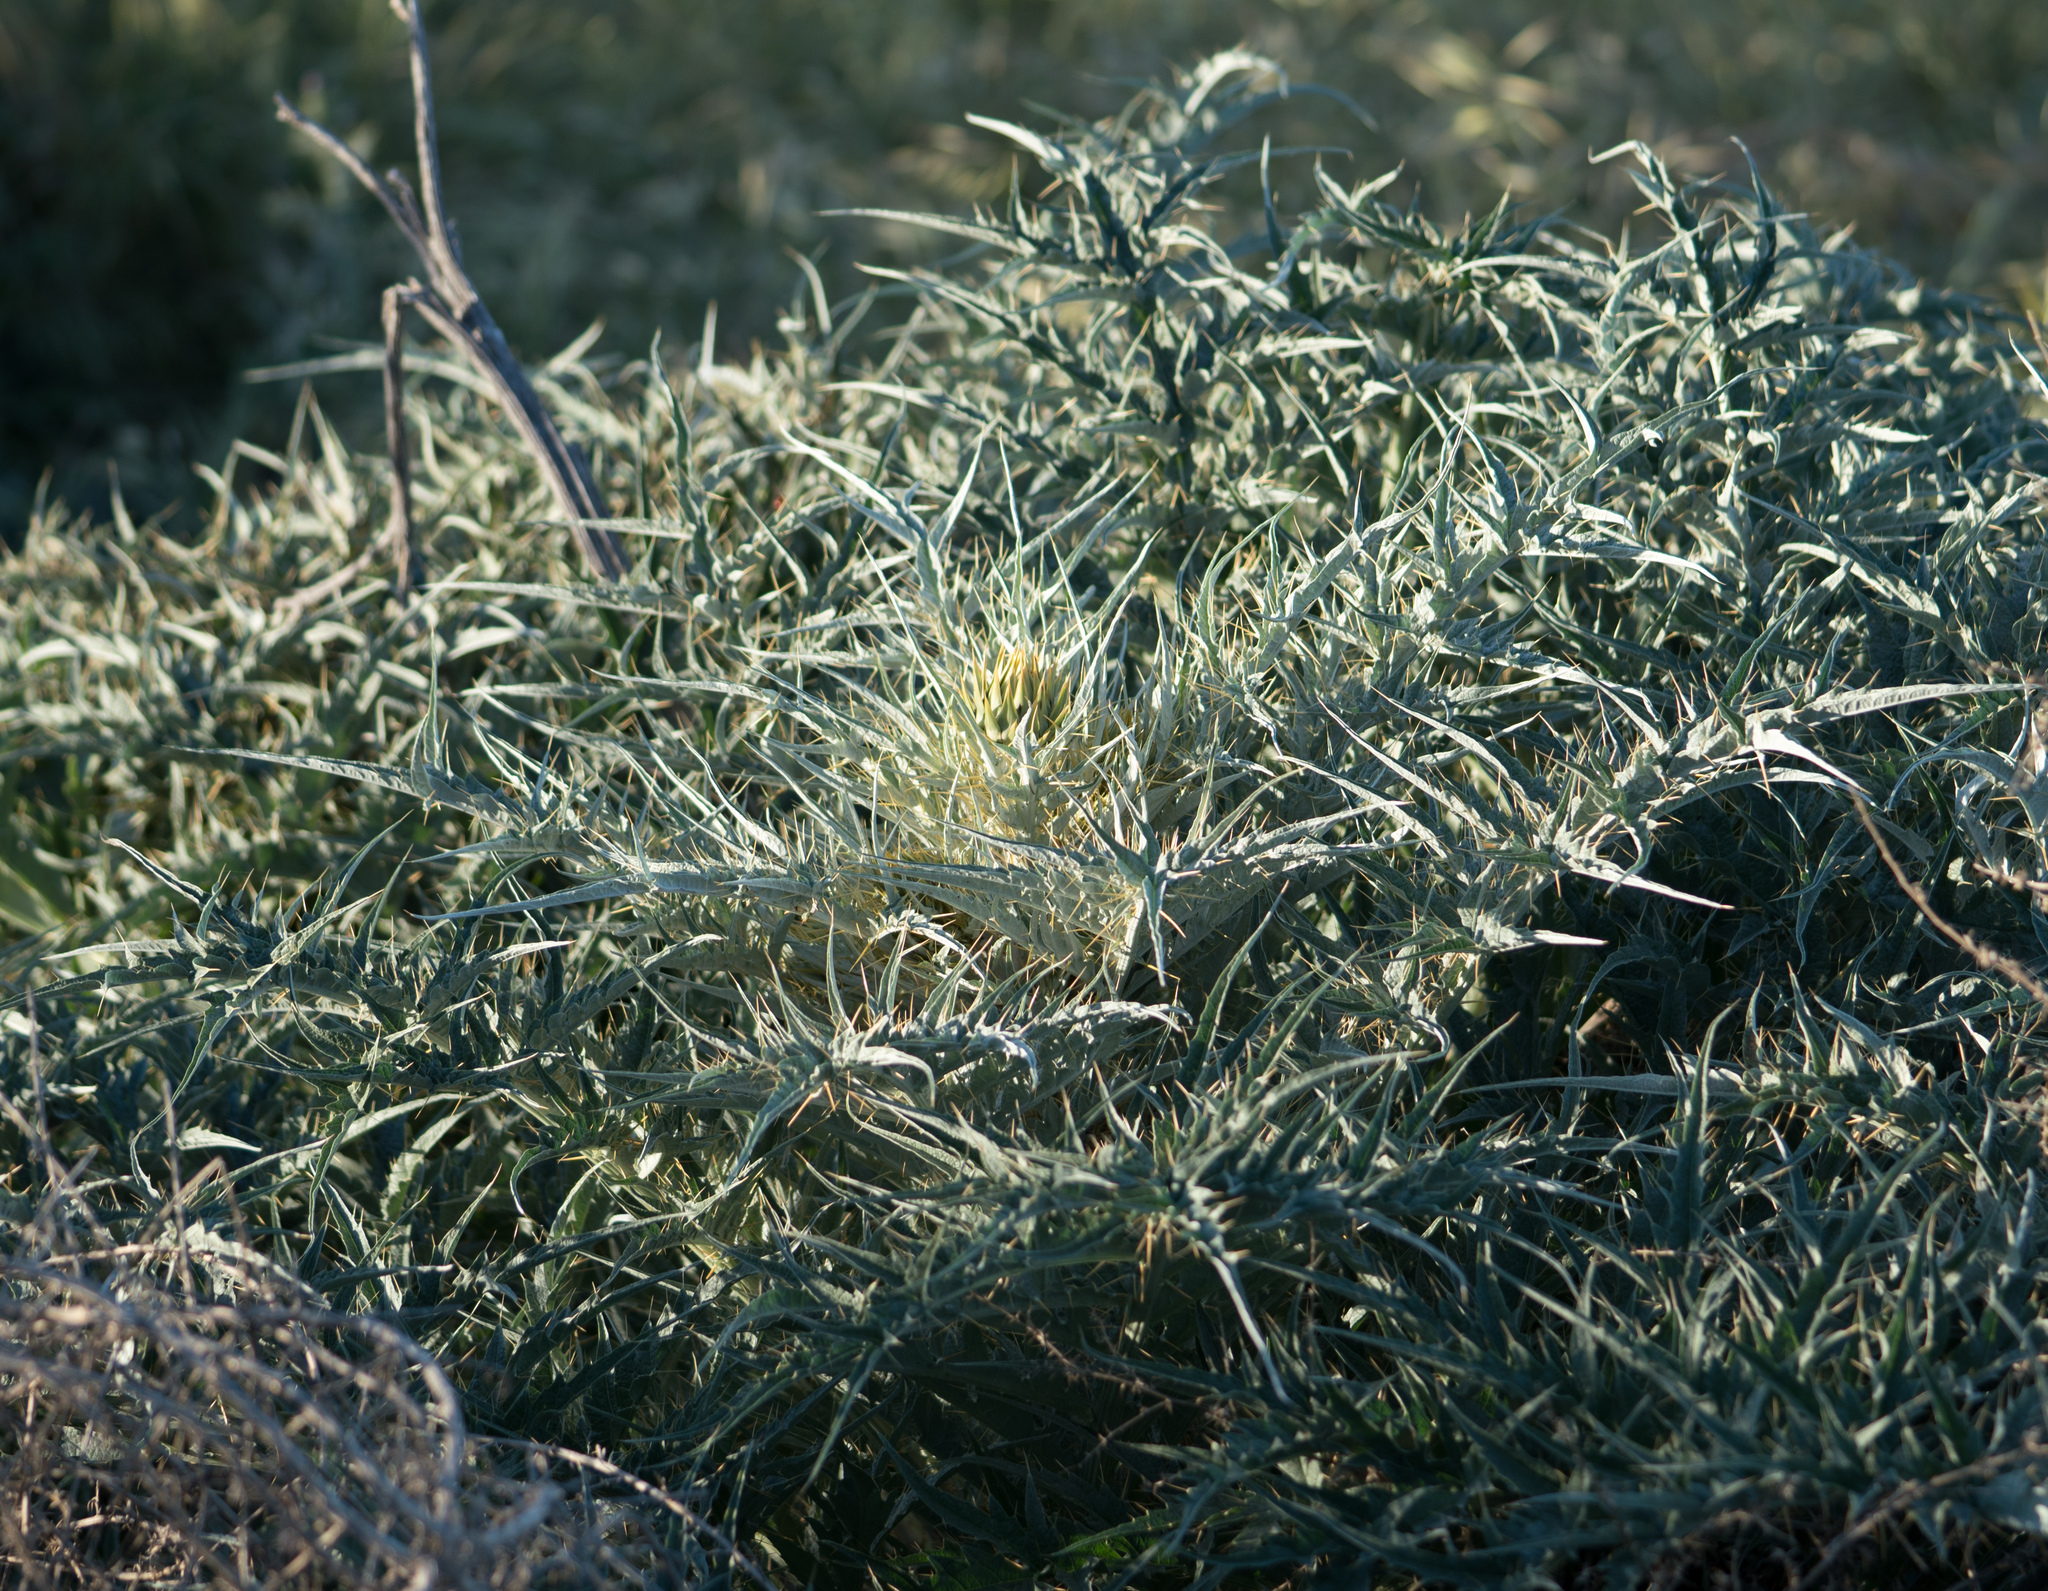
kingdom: Plantae
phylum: Tracheophyta
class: Magnoliopsida
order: Asterales
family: Asteraceae
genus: Cynara
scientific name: Cynara cardunculus
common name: Globe artichoke
